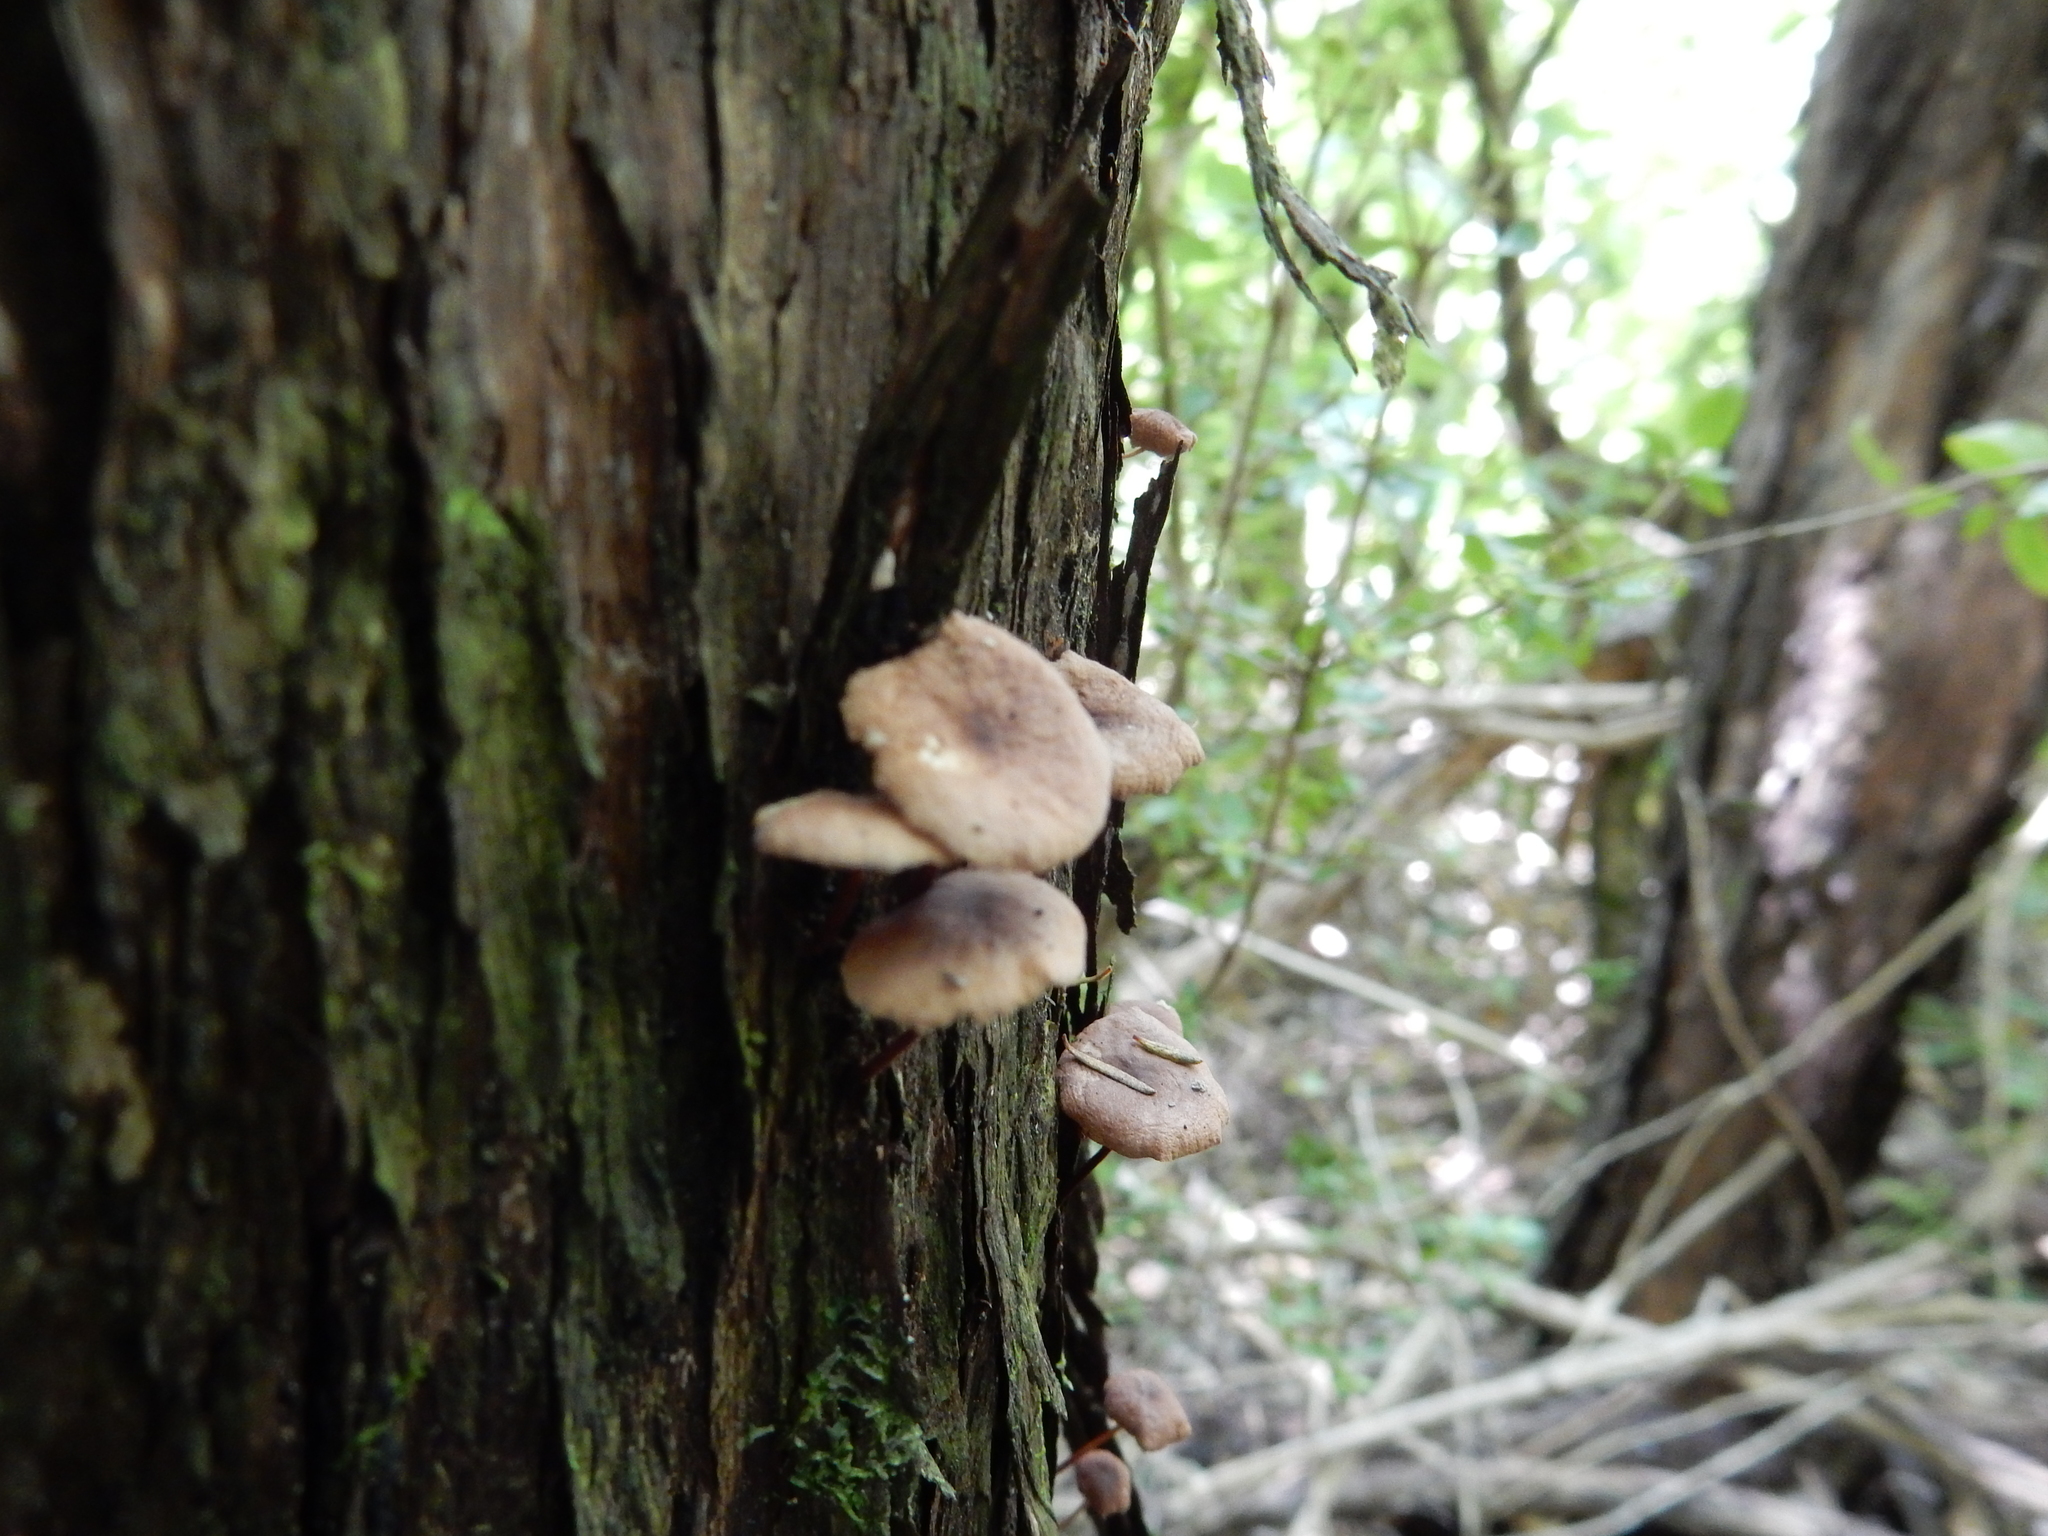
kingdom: Fungi
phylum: Basidiomycota
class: Agaricomycetes
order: Agaricales
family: Omphalotaceae
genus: Mycetinis
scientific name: Mycetinis curraniae
